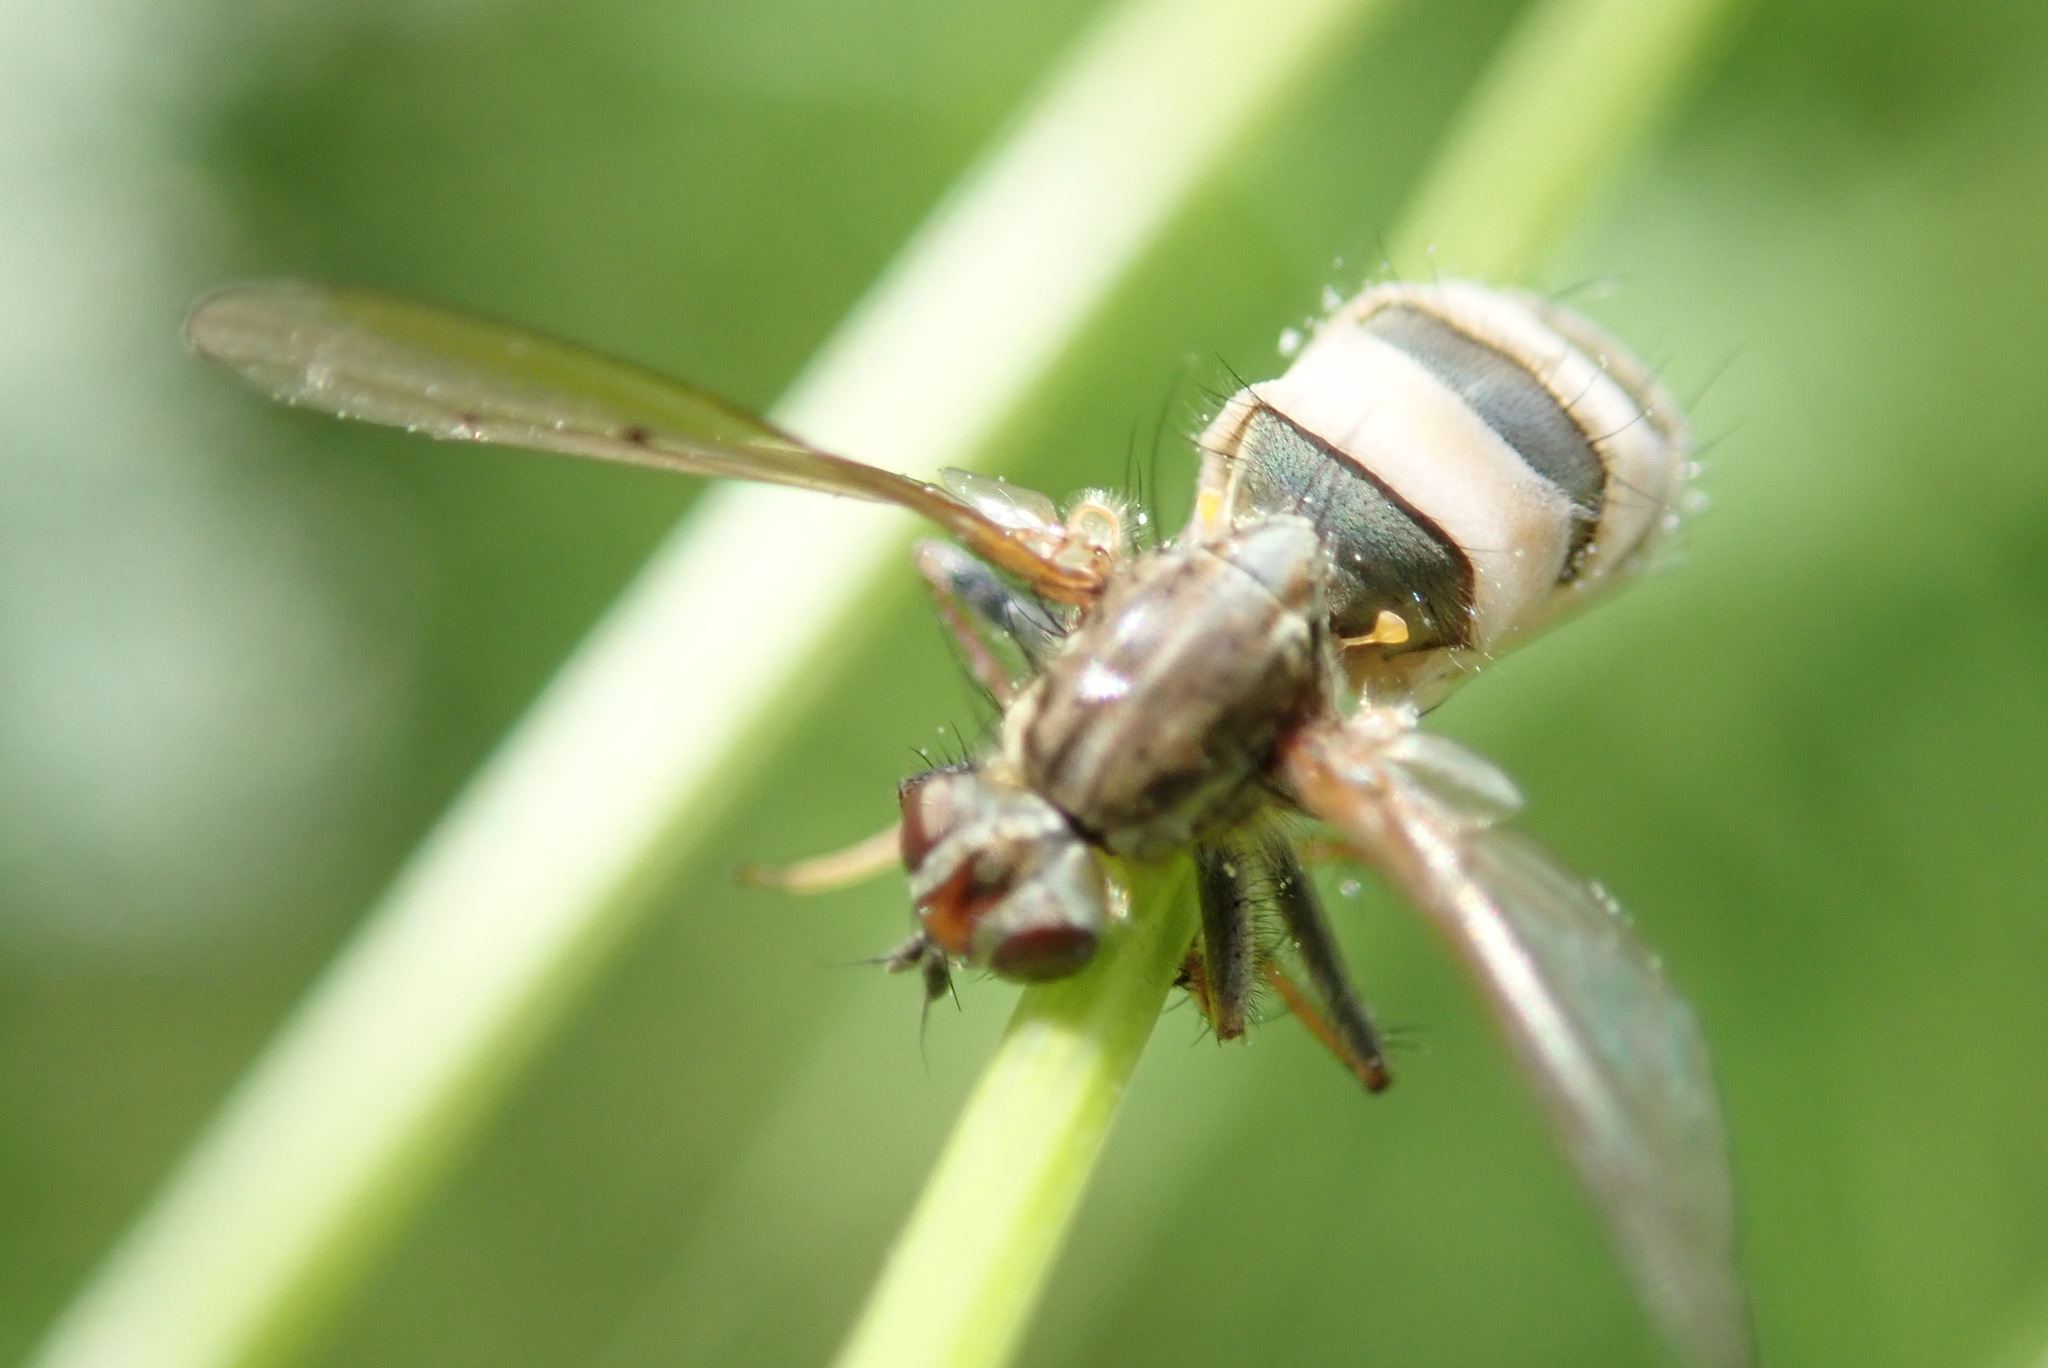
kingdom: Fungi
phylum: Entomophthoromycota
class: Entomophthoromycetes
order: Entomophthorales
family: Entomophthoraceae
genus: Entomophthora
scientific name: Entomophthora
